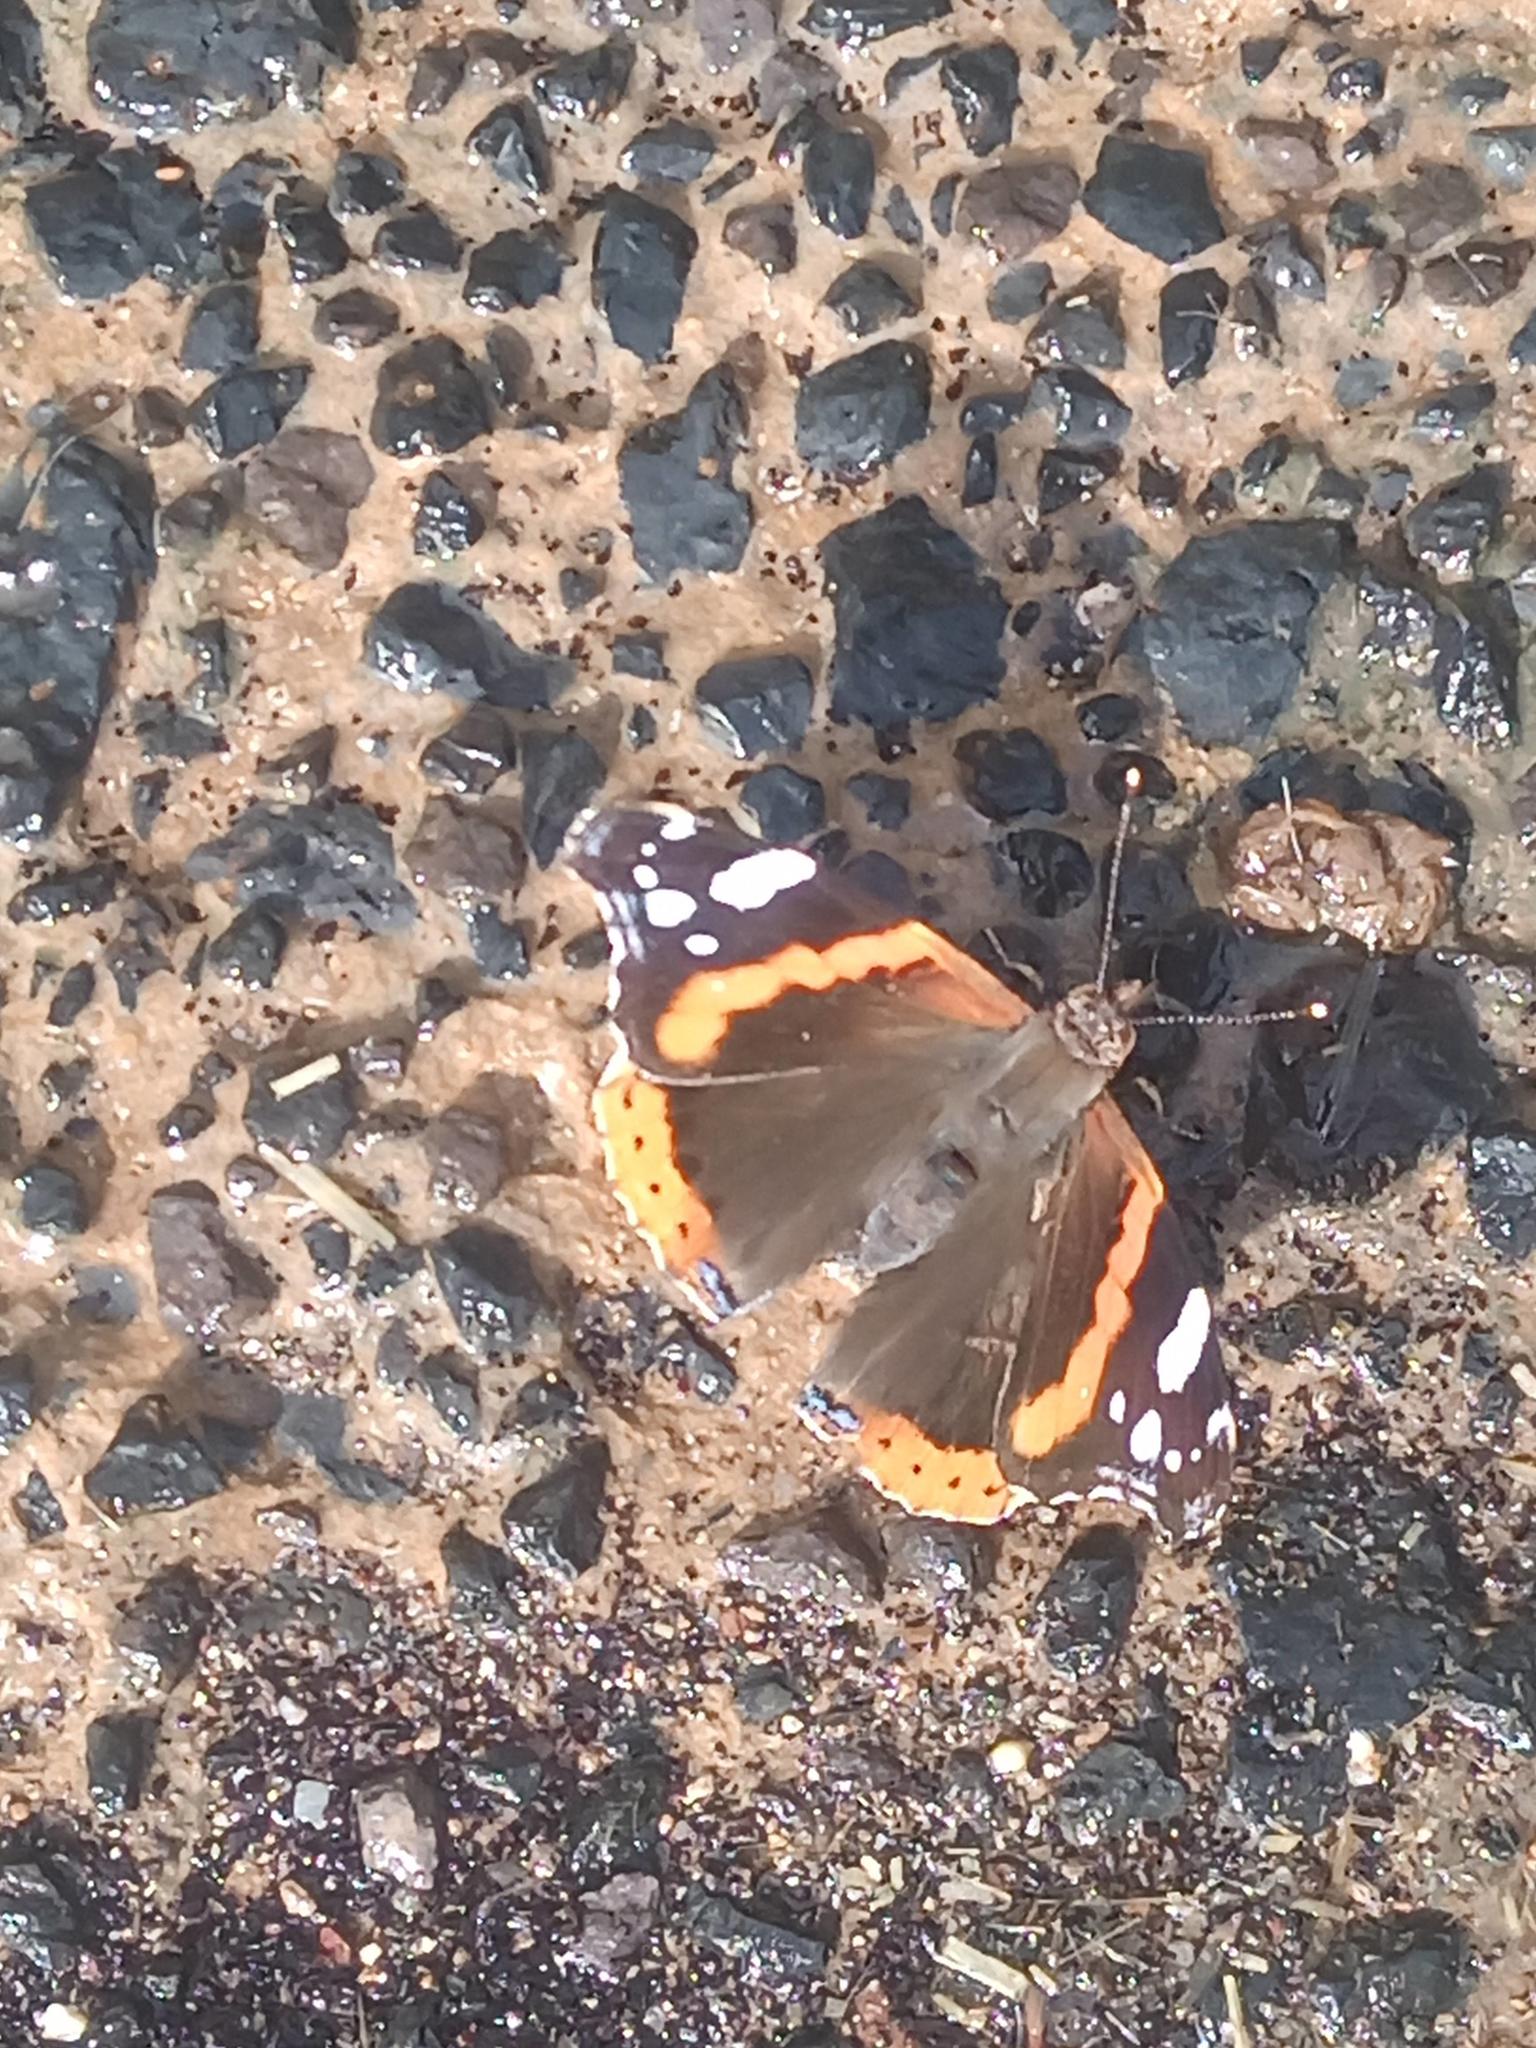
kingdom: Animalia
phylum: Arthropoda
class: Insecta
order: Lepidoptera
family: Nymphalidae
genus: Vanessa
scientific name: Vanessa atalanta
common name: Red admiral
